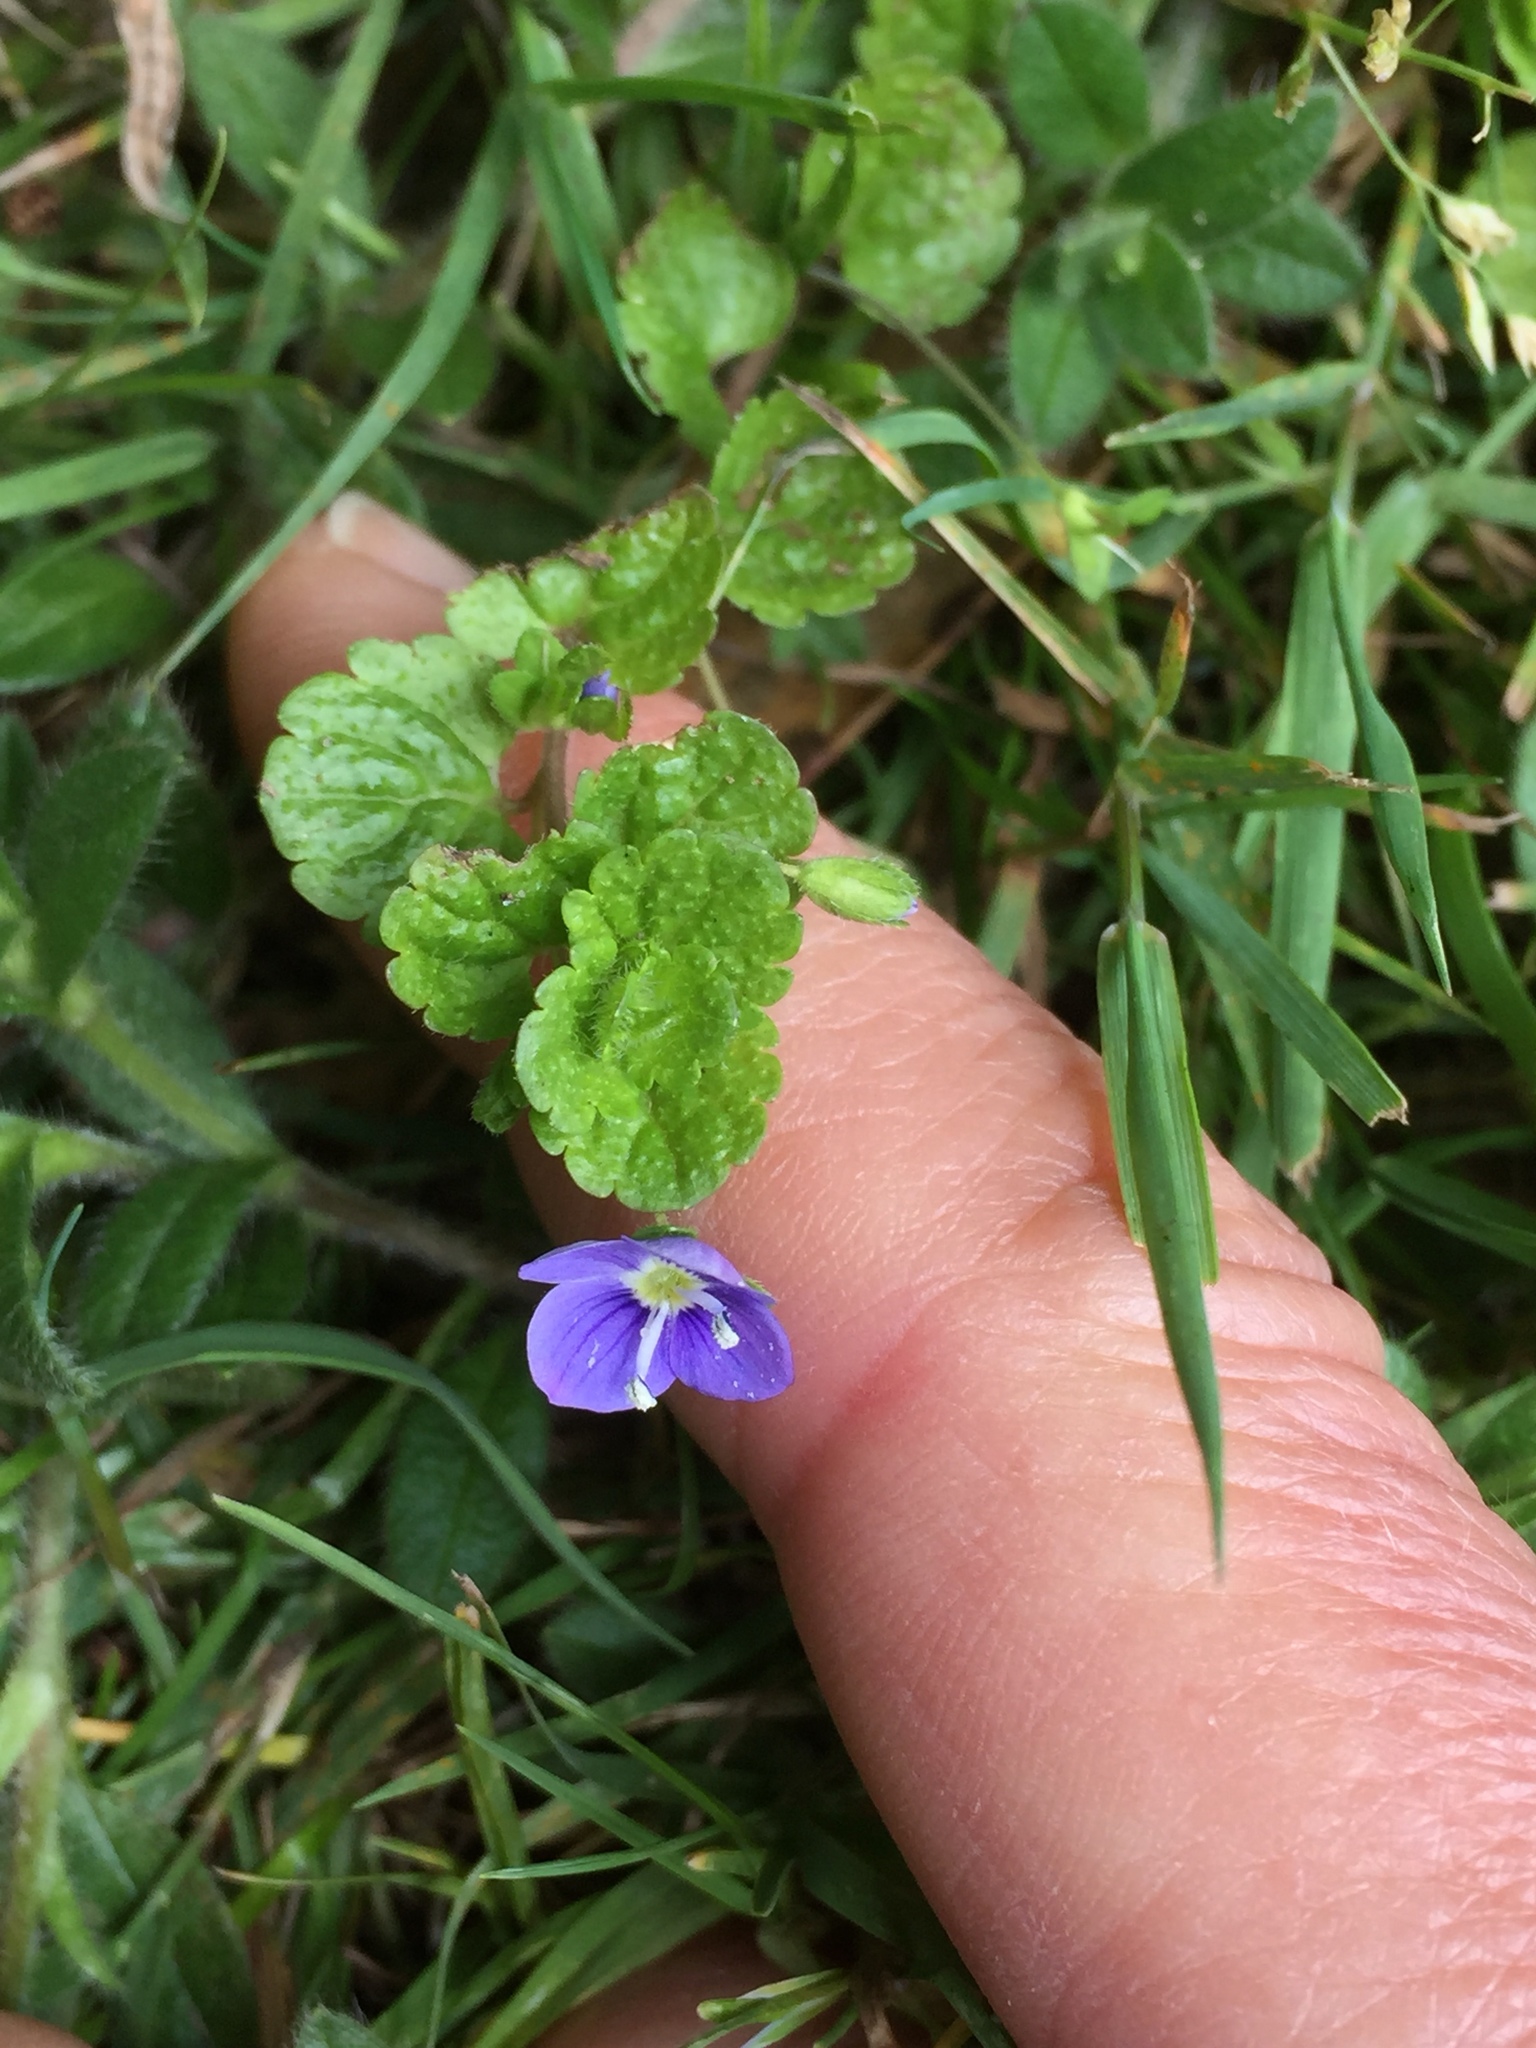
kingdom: Plantae
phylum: Tracheophyta
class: Magnoliopsida
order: Lamiales
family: Plantaginaceae
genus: Veronica
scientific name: Veronica filiformis
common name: Slender speedwell
